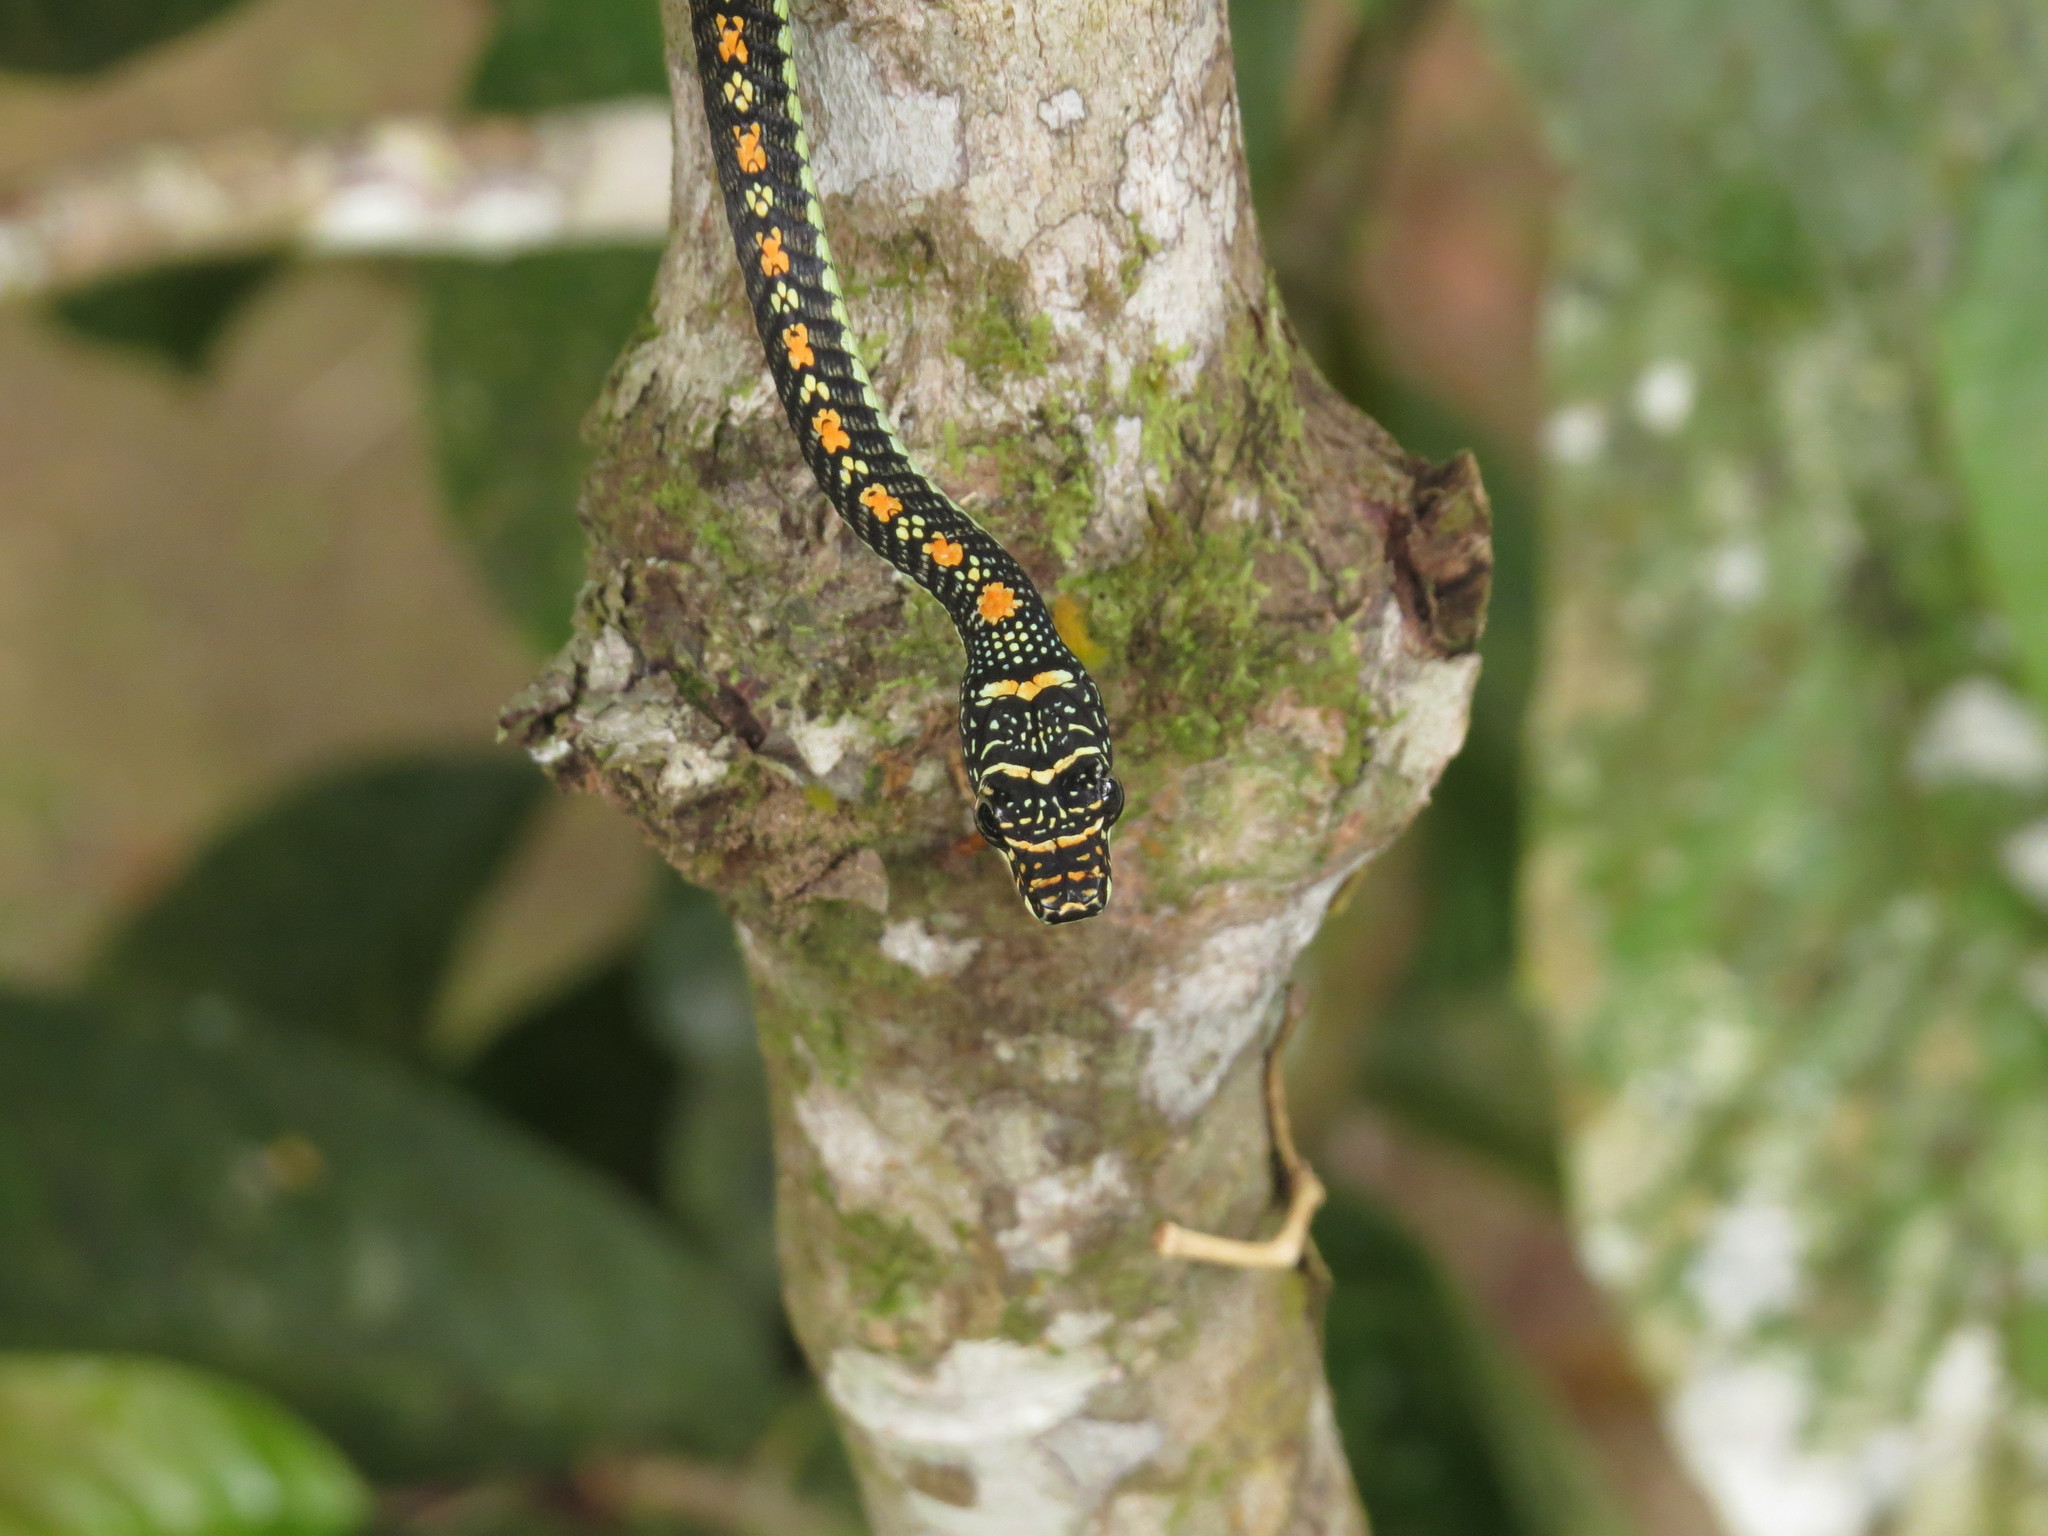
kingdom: Animalia
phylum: Chordata
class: Squamata
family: Colubridae
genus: Chrysopelea
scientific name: Chrysopelea paradisi
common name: Paradise tree snake
